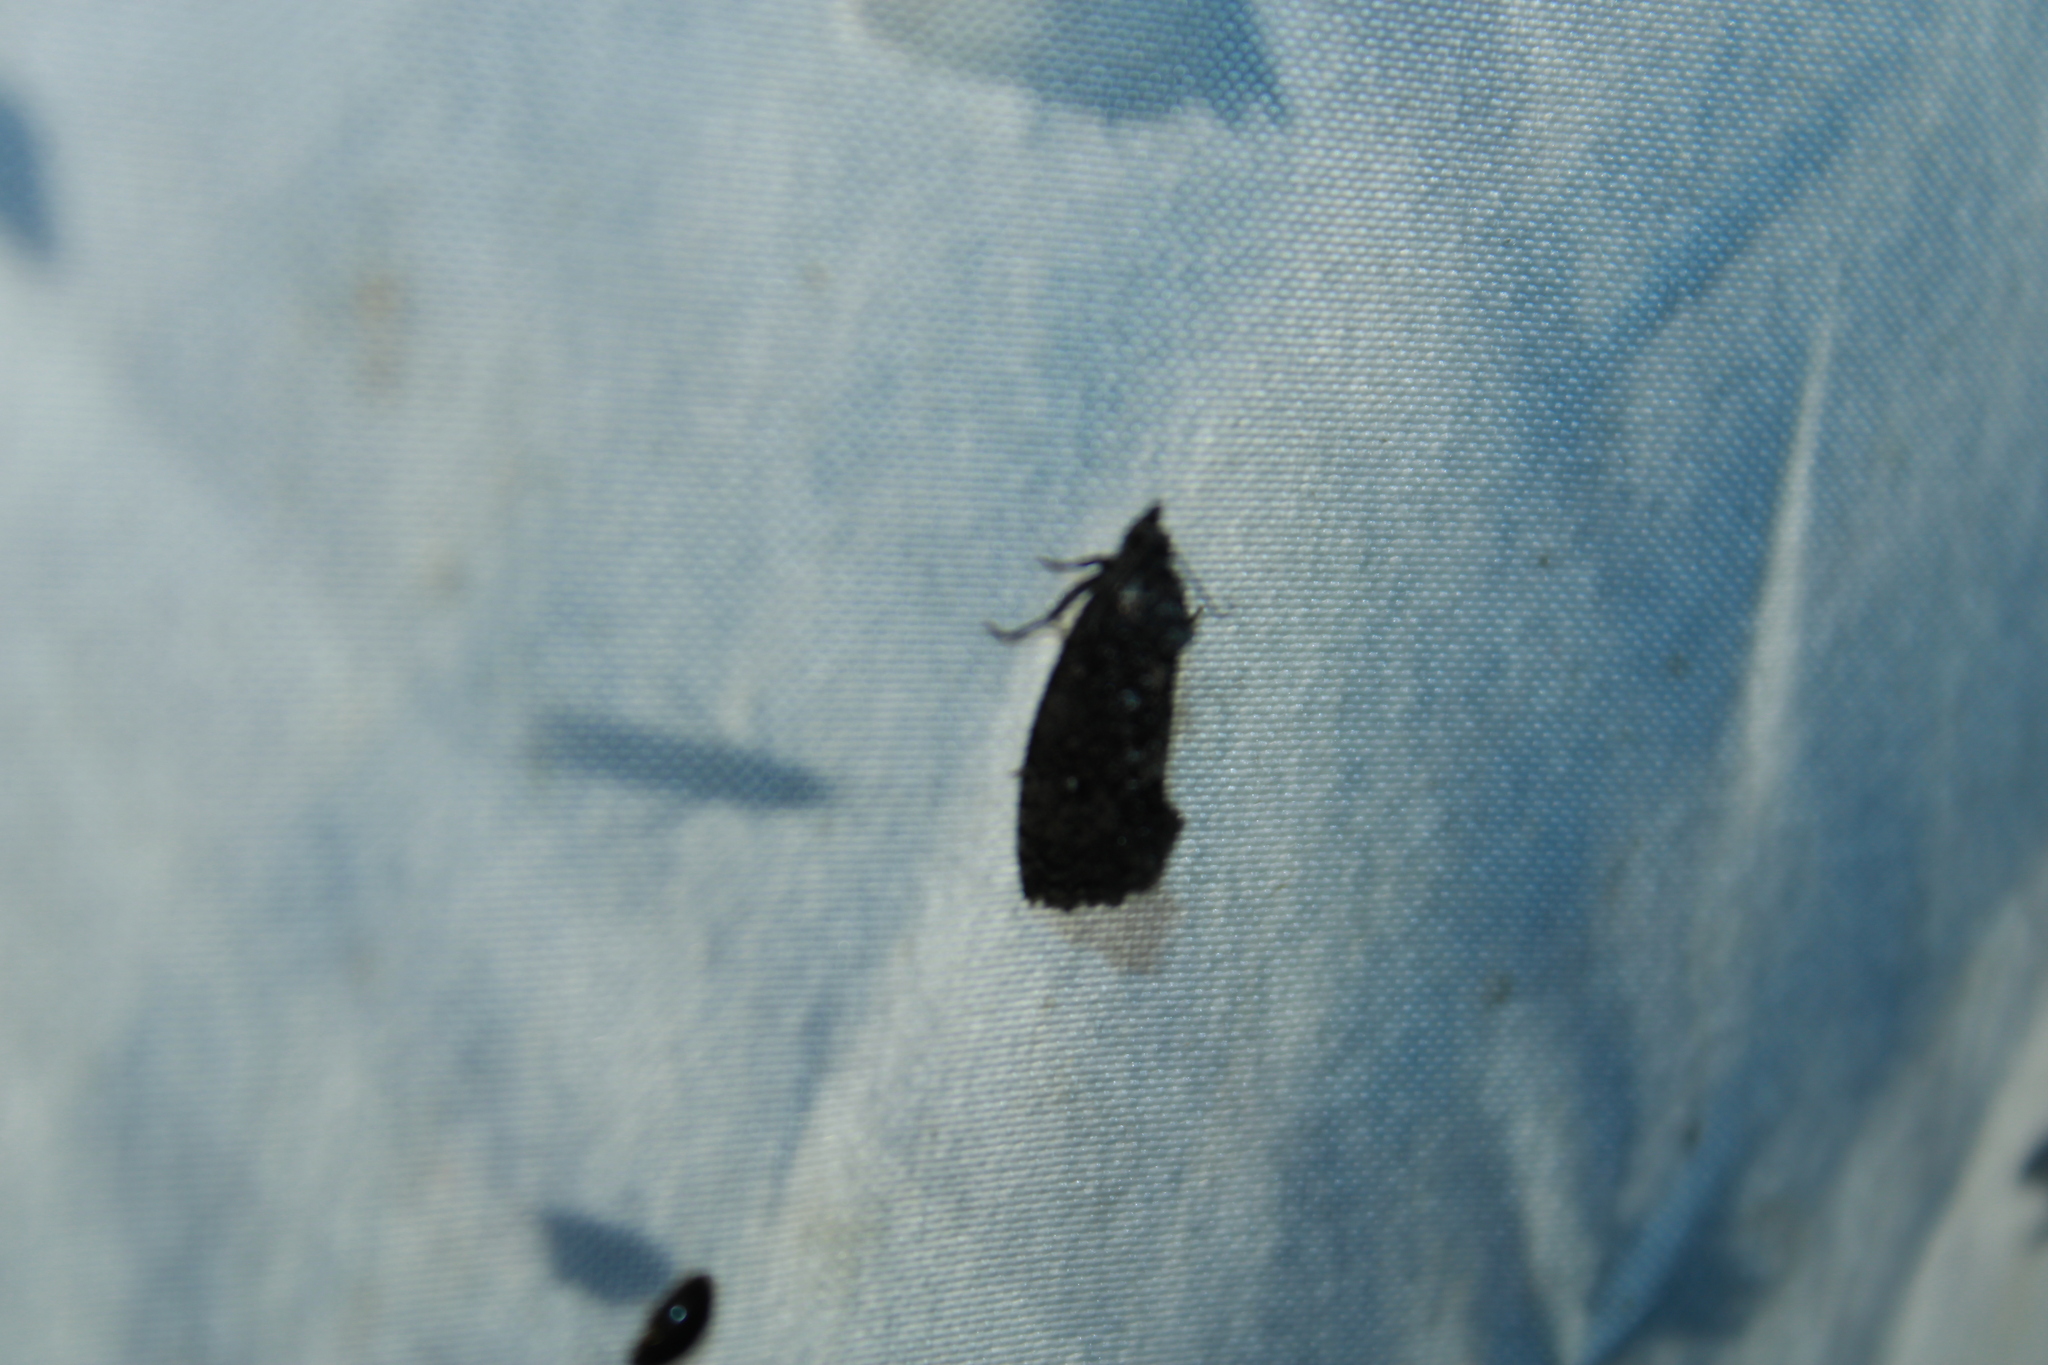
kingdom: Animalia
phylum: Arthropoda
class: Insecta
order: Lepidoptera
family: Tortricidae
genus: Gymnandrosoma
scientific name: Gymnandrosoma punctidiscanum
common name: Dotted ecdytolopha moth
